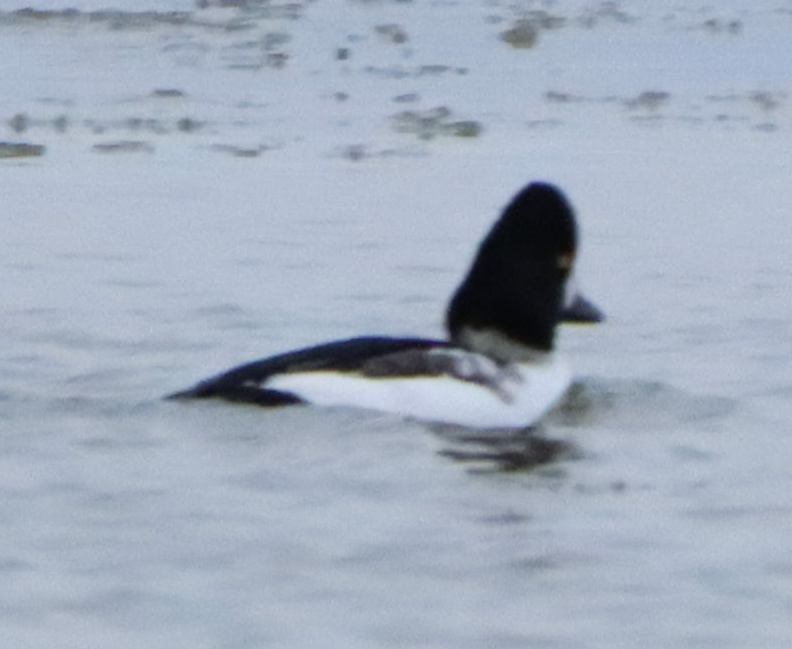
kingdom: Animalia
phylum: Chordata
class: Aves
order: Anseriformes
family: Anatidae
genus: Bucephala
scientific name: Bucephala clangula
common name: Common goldeneye
